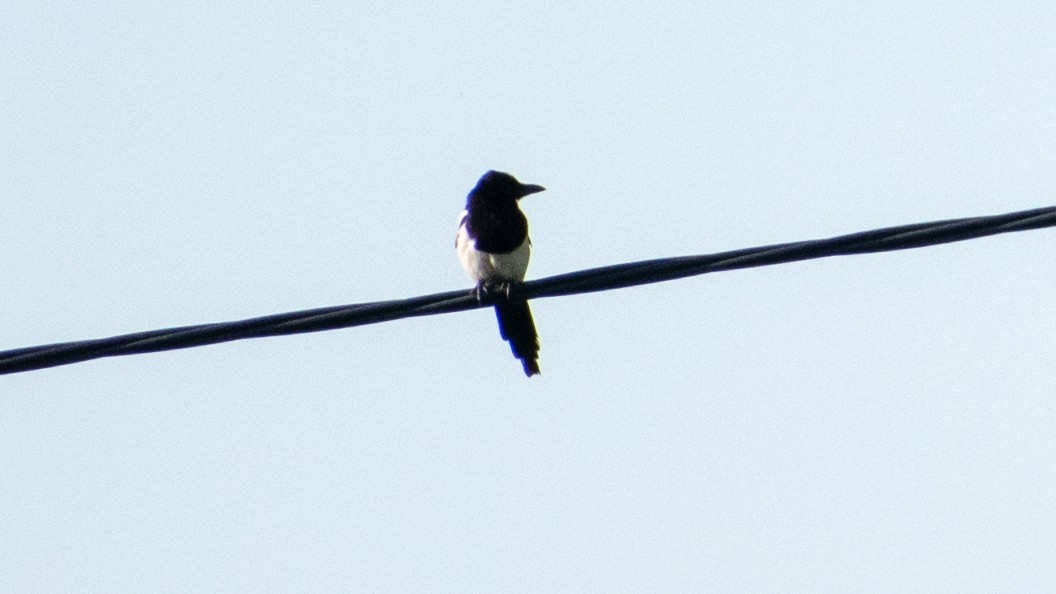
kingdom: Animalia
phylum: Chordata
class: Aves
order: Passeriformes
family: Corvidae
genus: Pica
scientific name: Pica pica
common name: Eurasian magpie
